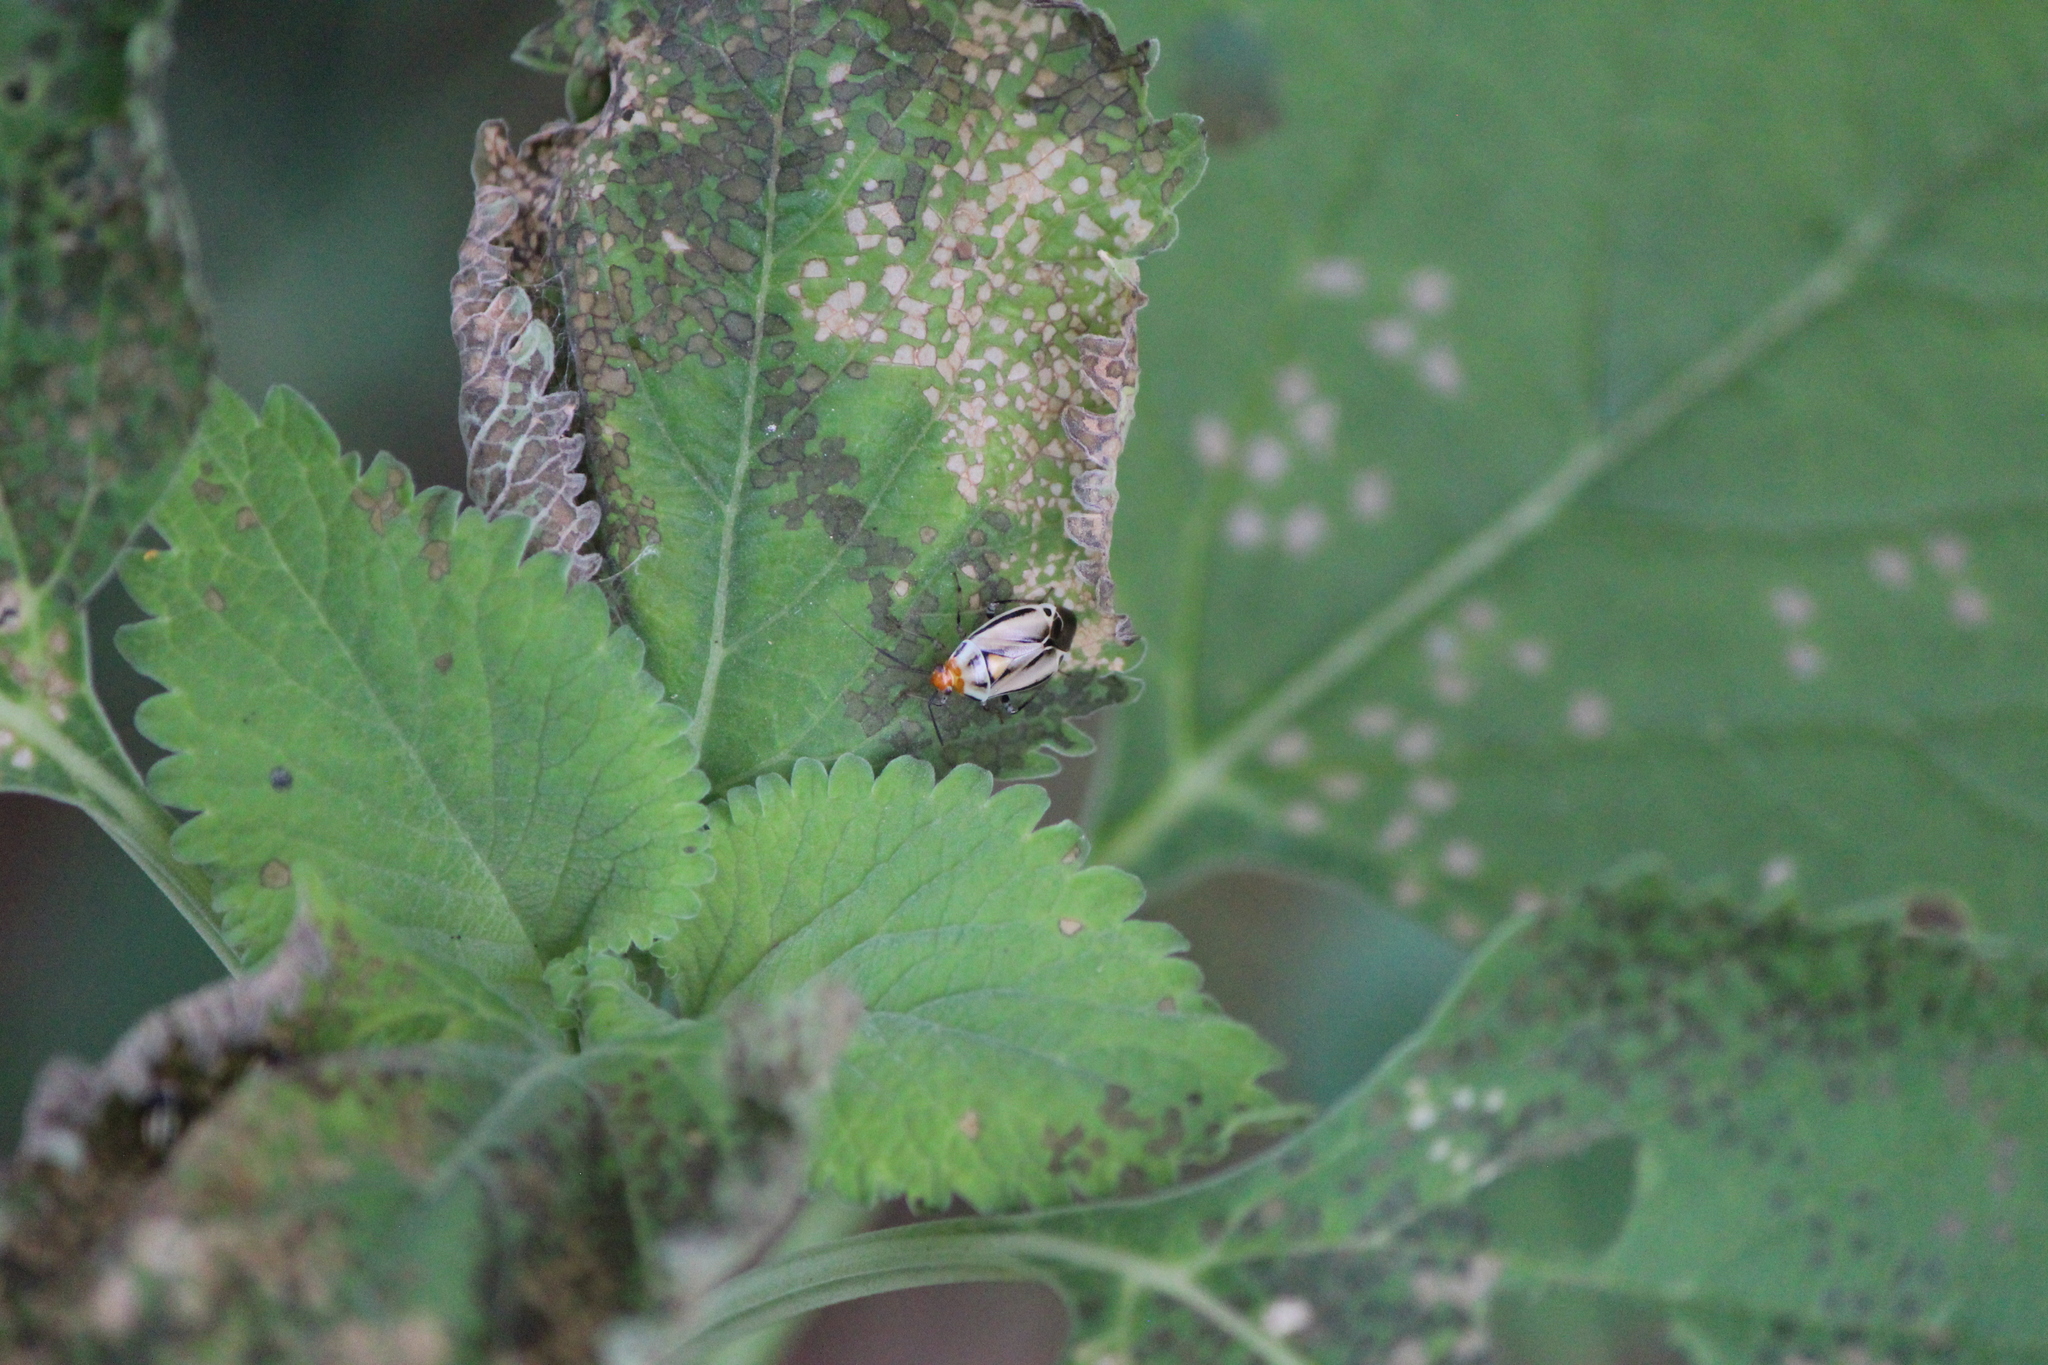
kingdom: Animalia
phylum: Arthropoda
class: Insecta
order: Hemiptera
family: Miridae
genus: Poecilocapsus
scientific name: Poecilocapsus nigriger
